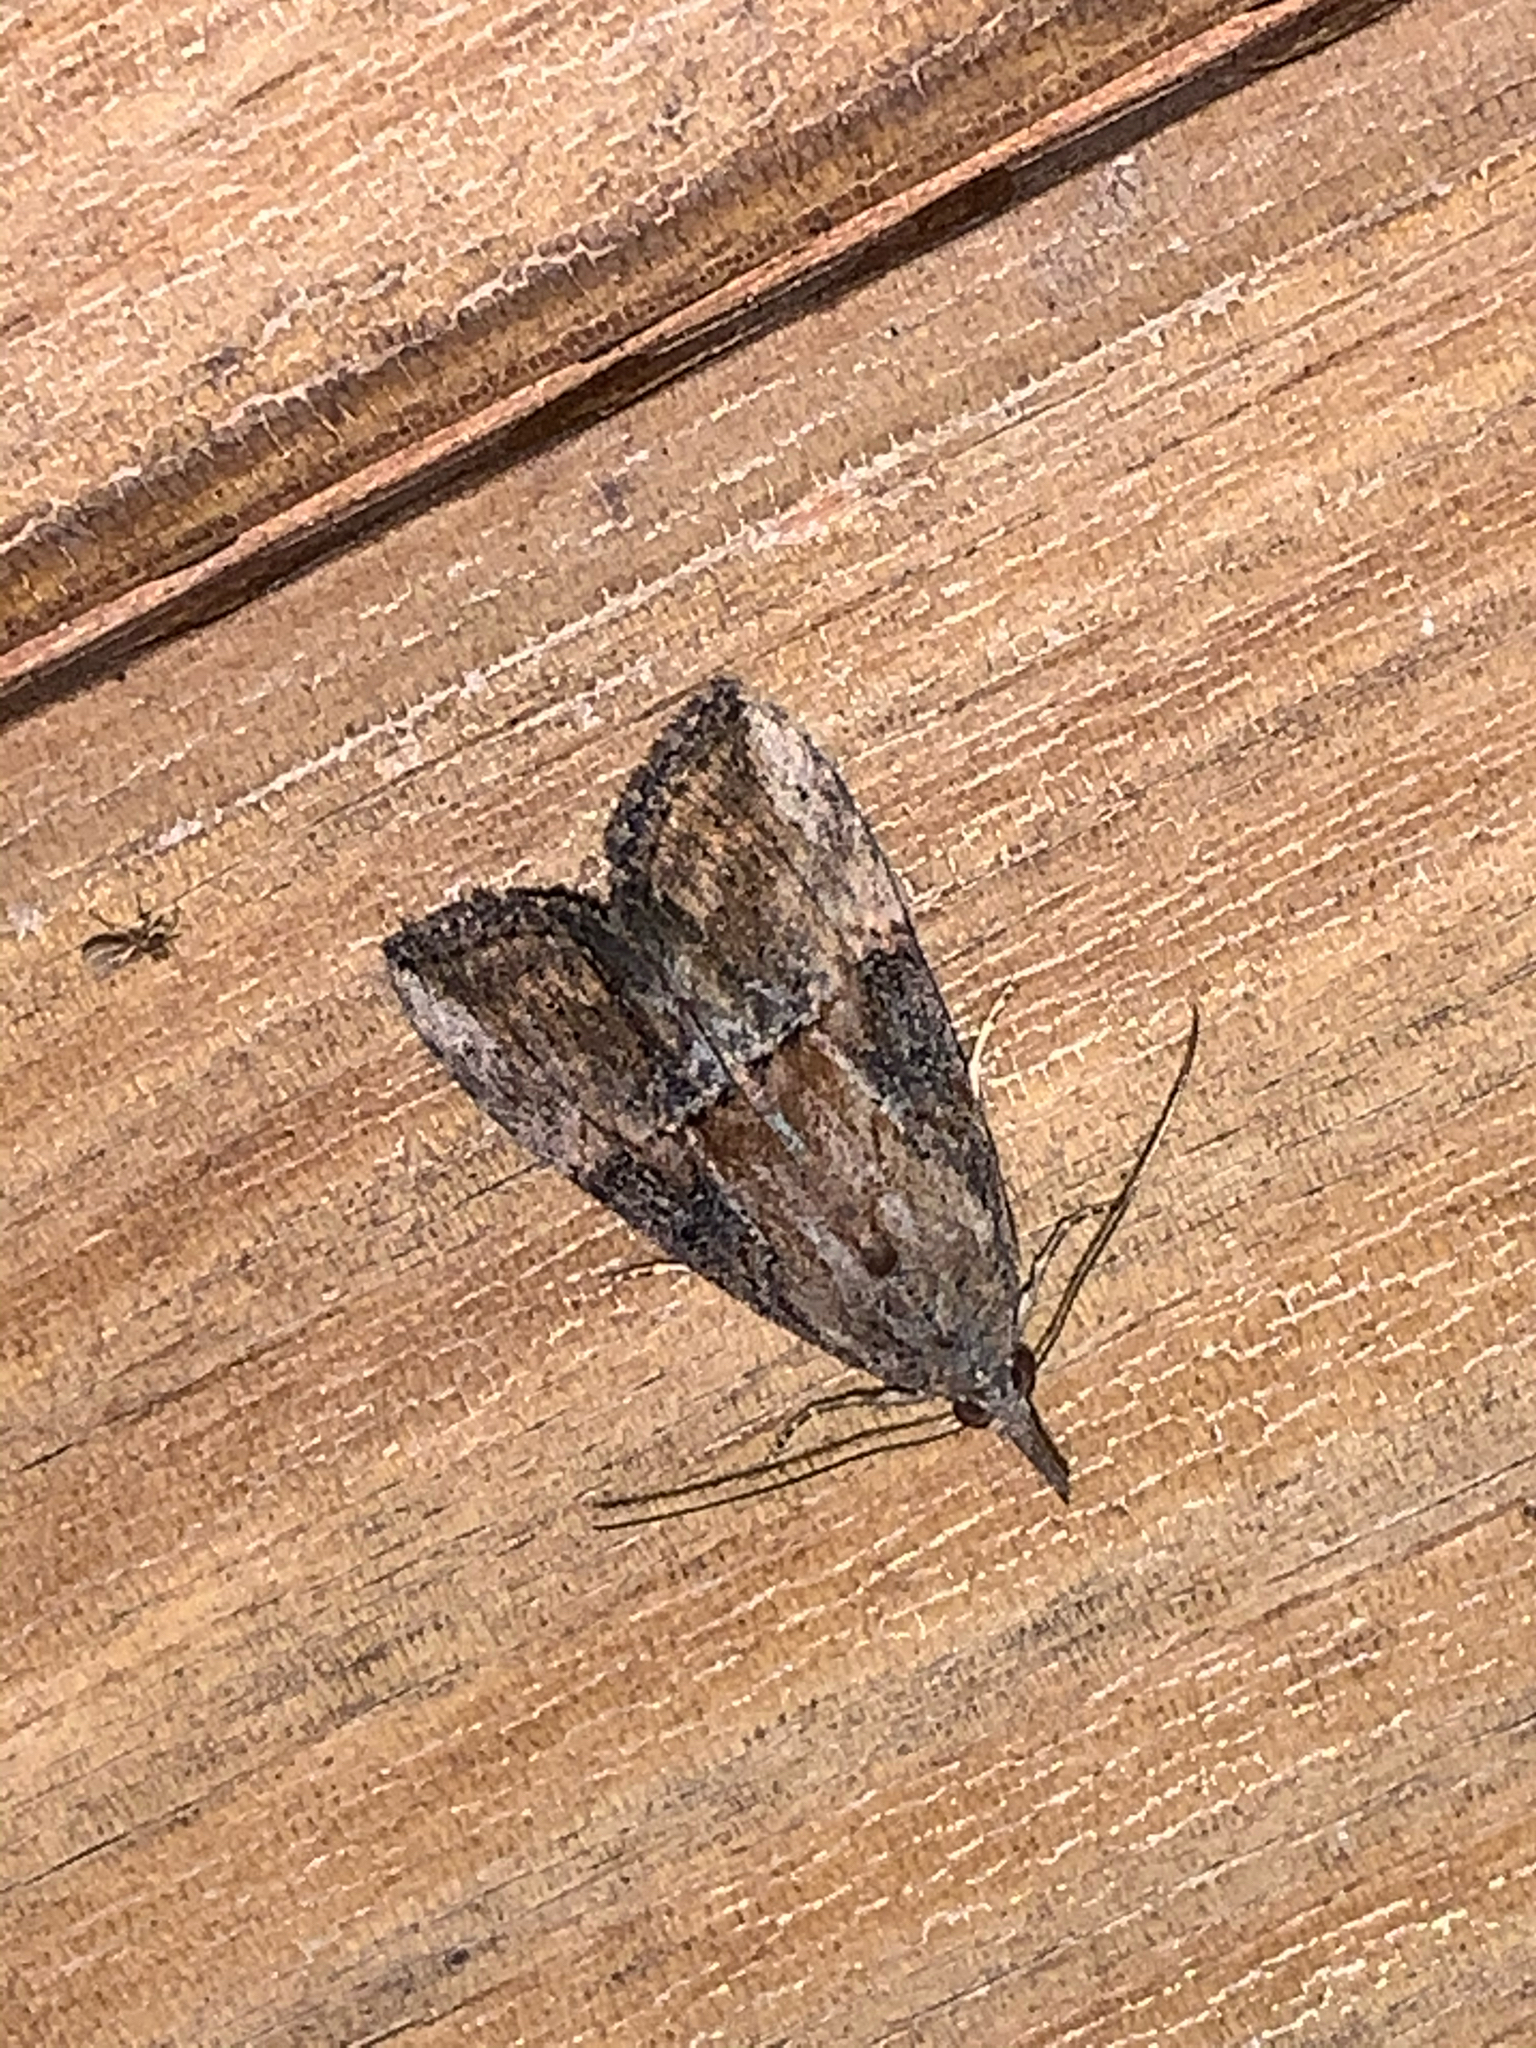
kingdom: Animalia
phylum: Arthropoda
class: Insecta
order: Lepidoptera
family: Erebidae
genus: Hypena
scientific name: Hypena scabra
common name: Green cloverworm
